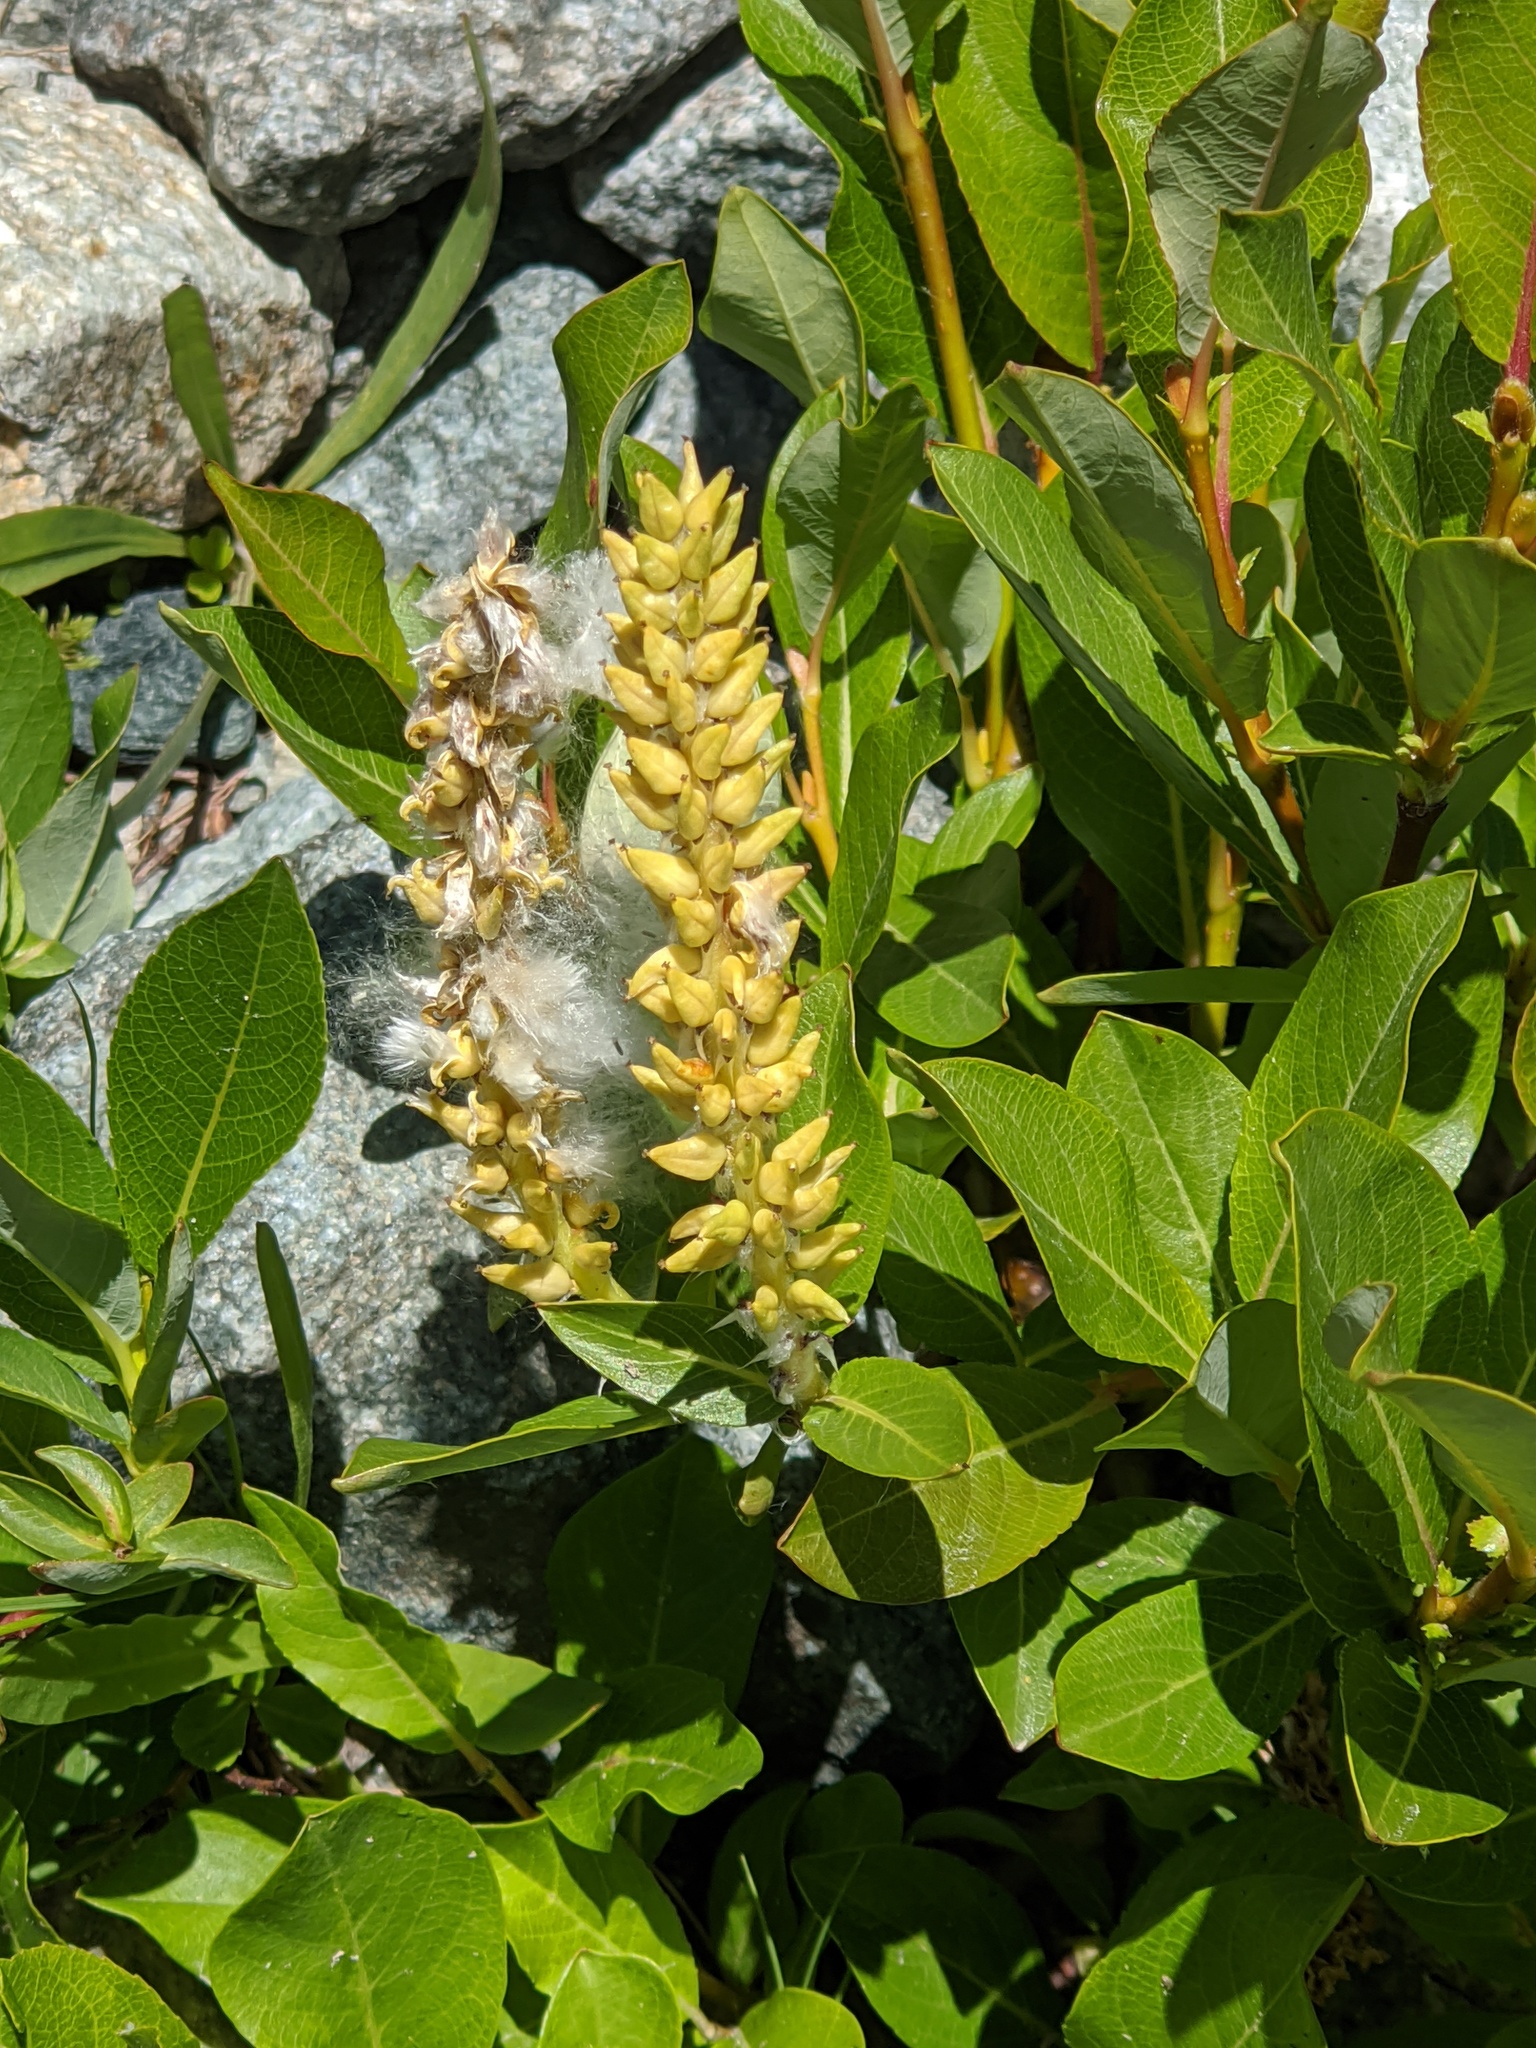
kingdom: Plantae
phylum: Tracheophyta
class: Magnoliopsida
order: Malpighiales
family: Salicaceae
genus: Salix
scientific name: Salix hastata
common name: Halberd willow
